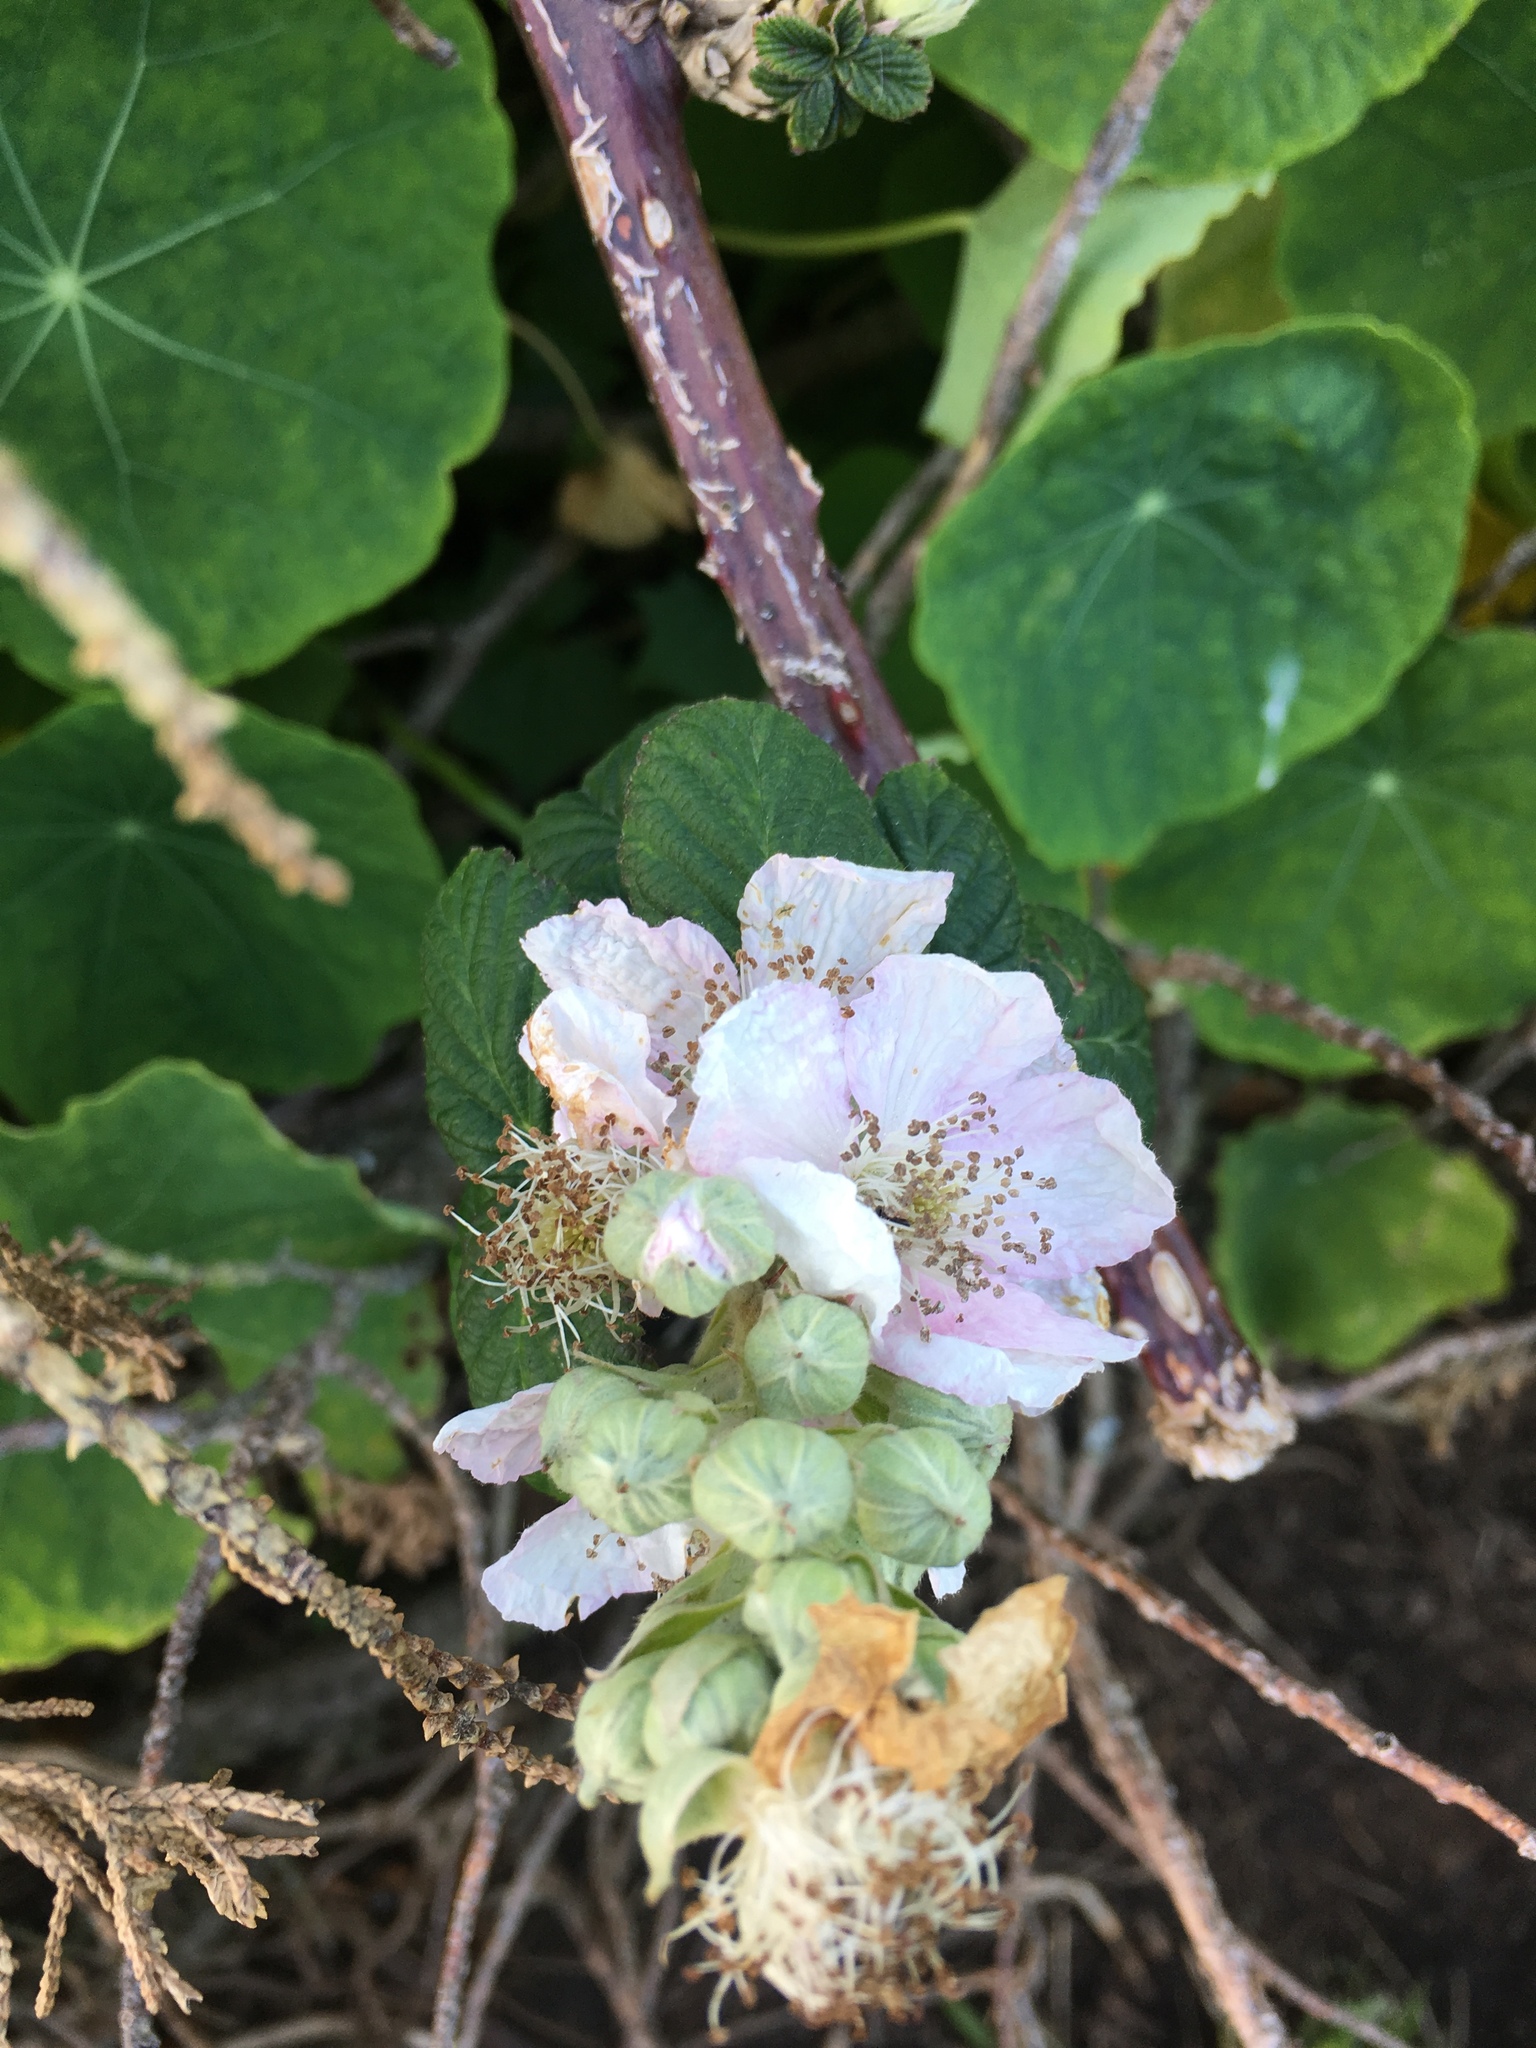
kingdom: Plantae
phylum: Tracheophyta
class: Magnoliopsida
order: Rosales
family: Rosaceae
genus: Rubus
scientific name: Rubus armeniacus
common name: Himalayan blackberry
